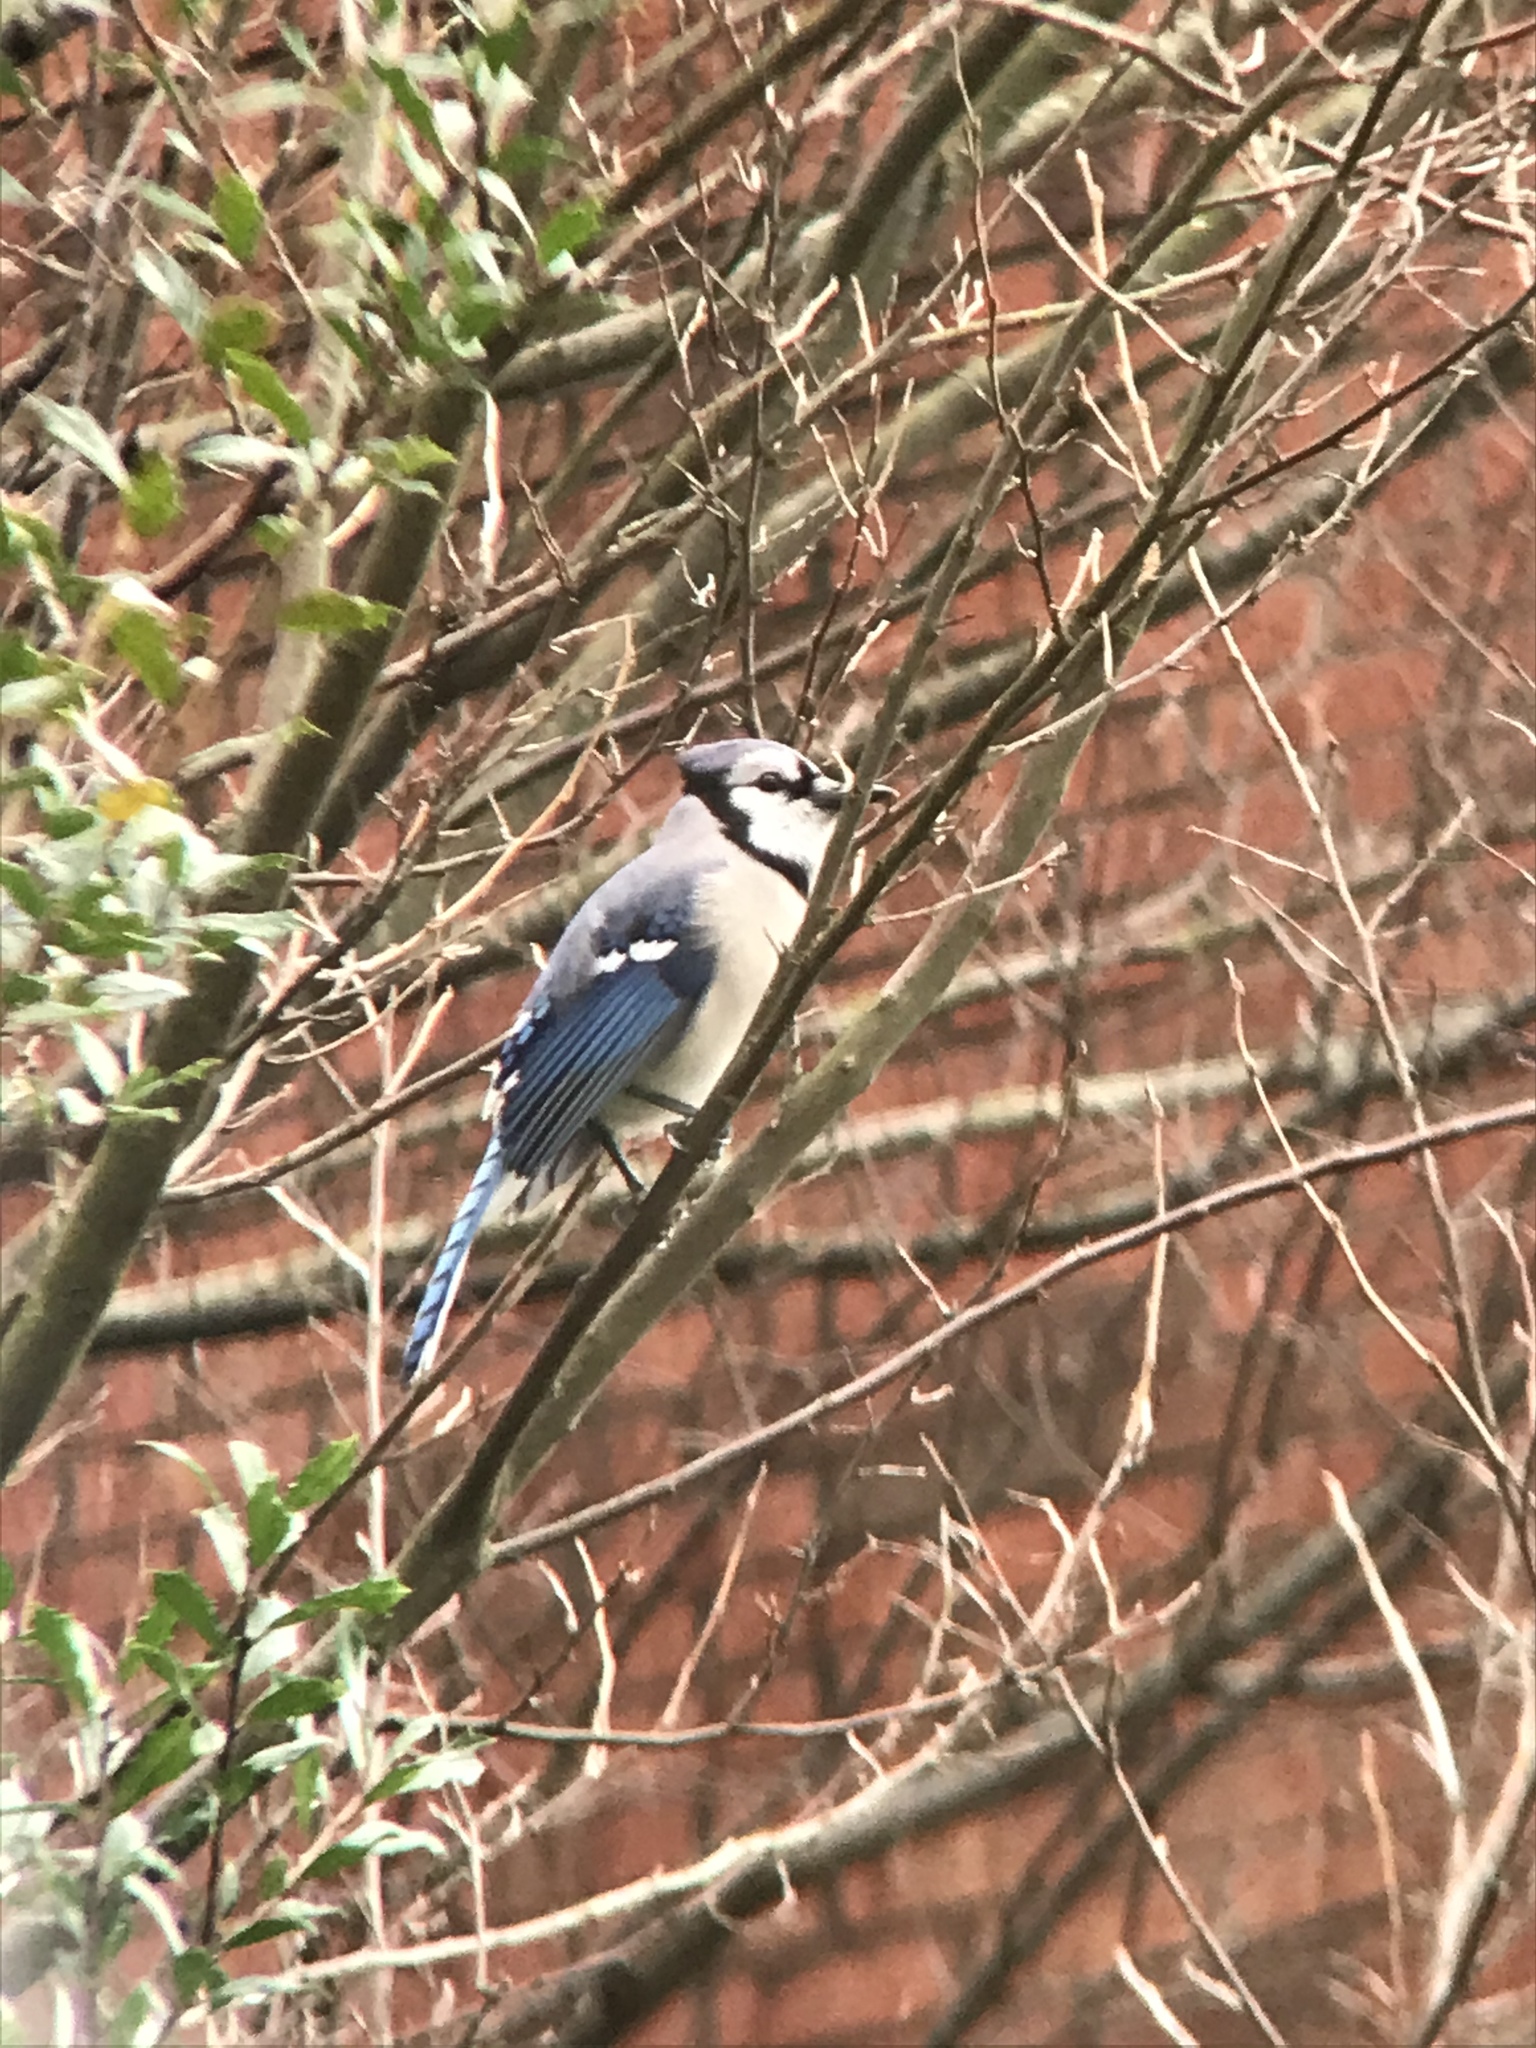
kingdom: Animalia
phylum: Chordata
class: Aves
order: Passeriformes
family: Corvidae
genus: Cyanocitta
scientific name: Cyanocitta cristata
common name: Blue jay
